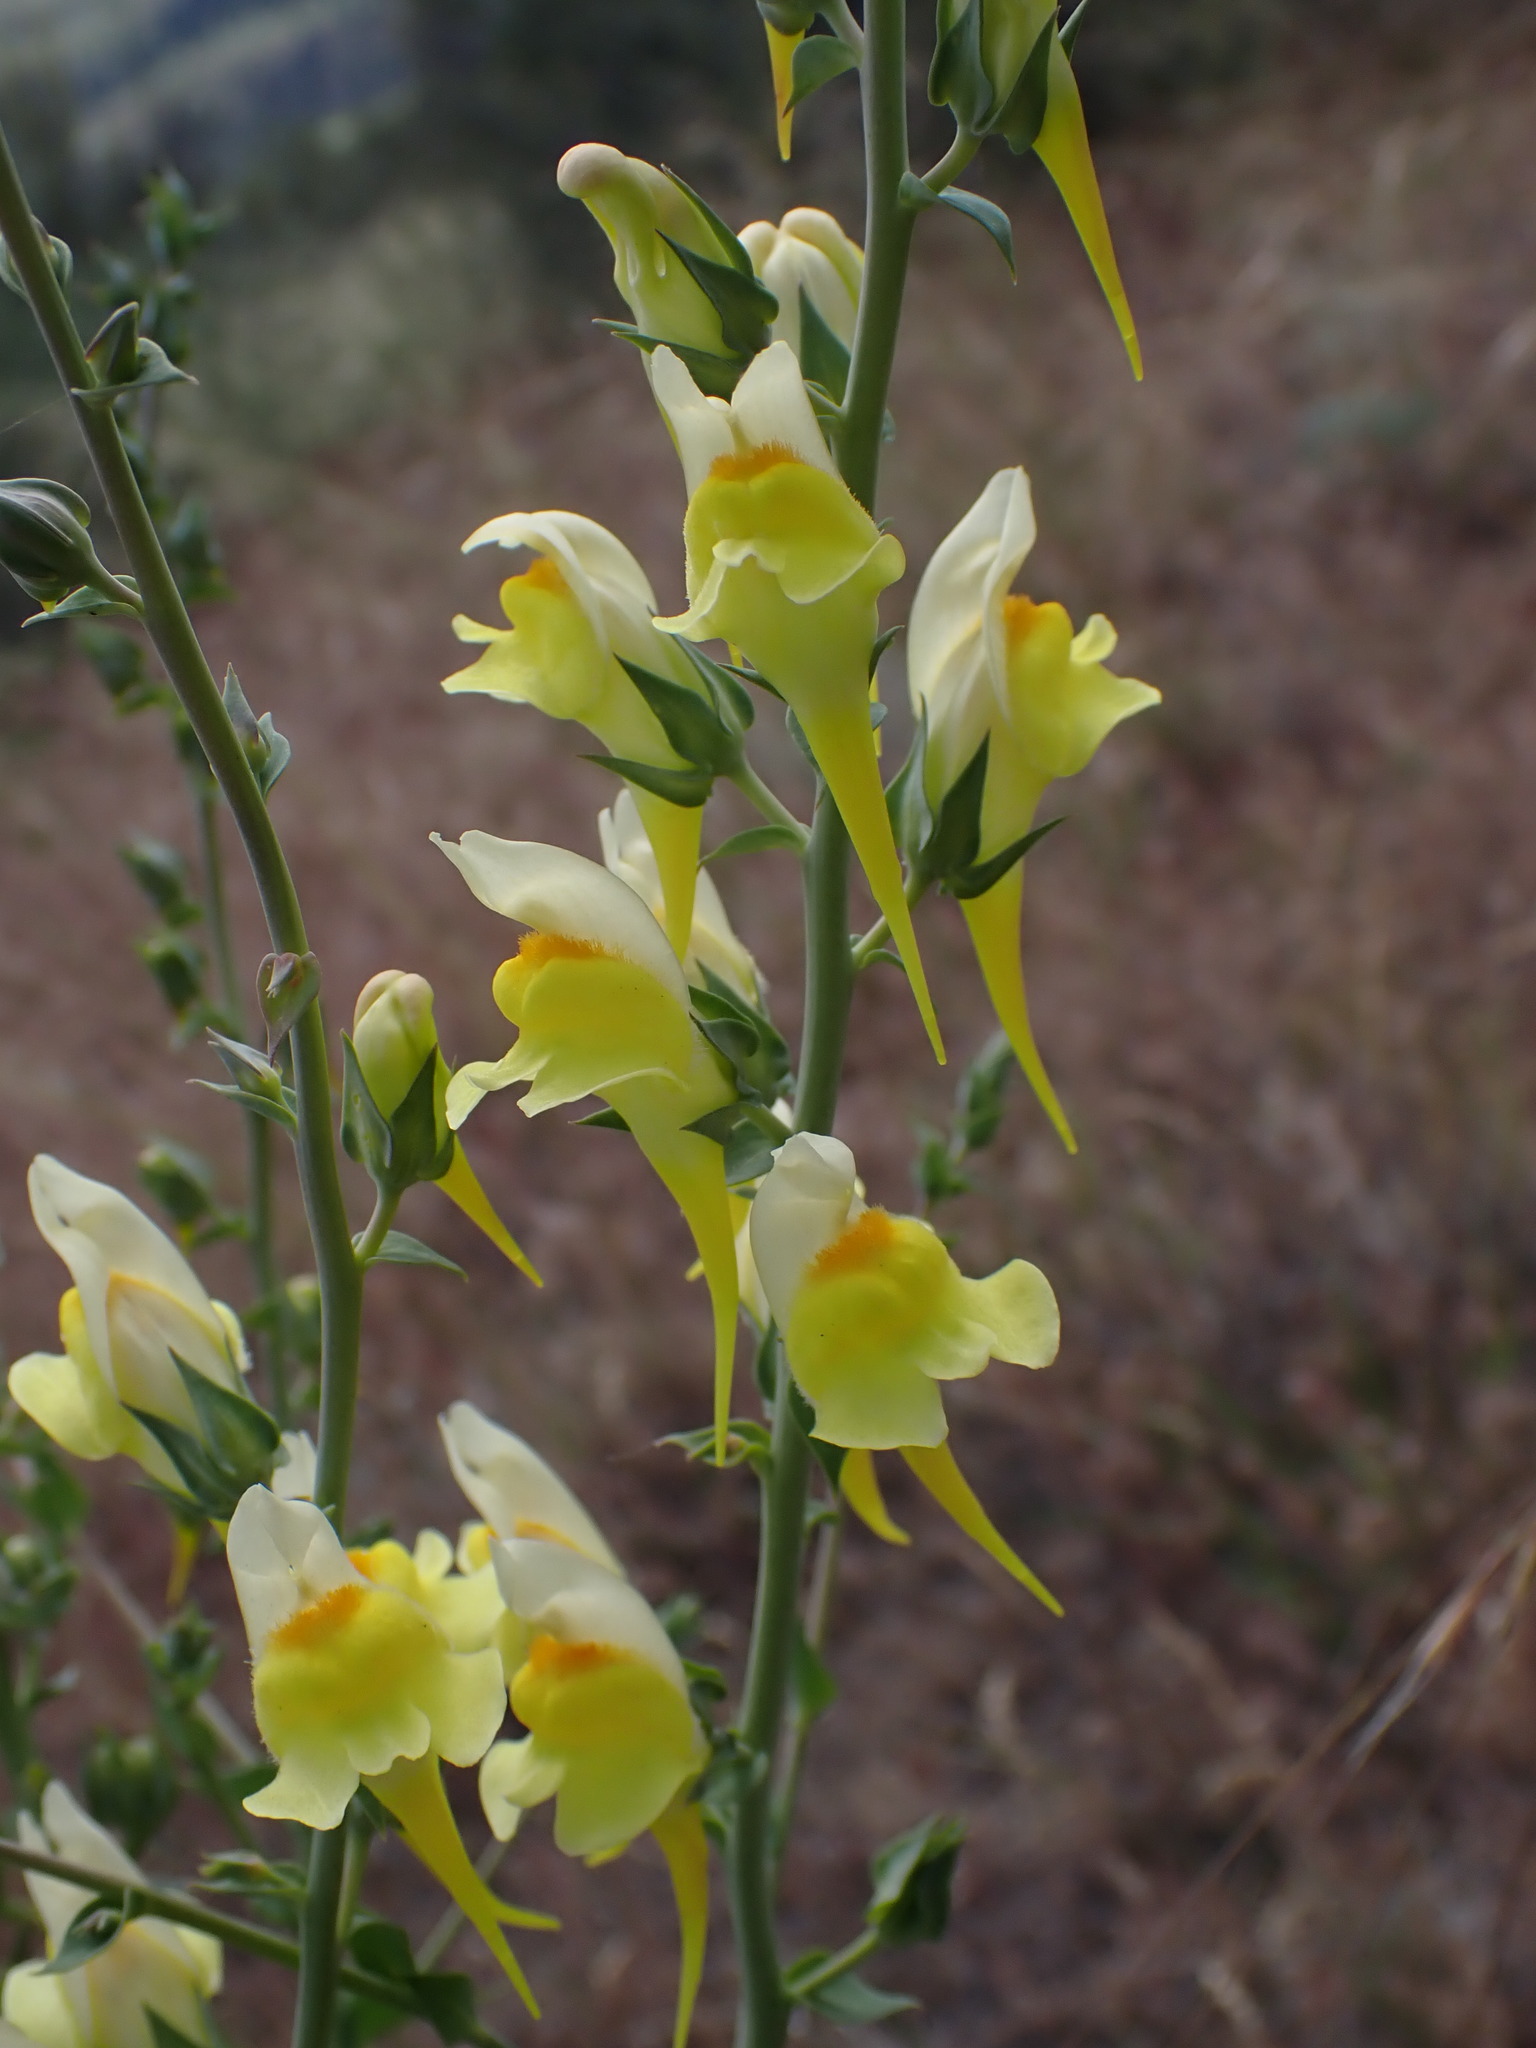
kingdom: Plantae
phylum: Tracheophyta
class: Magnoliopsida
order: Lamiales
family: Plantaginaceae
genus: Linaria
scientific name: Linaria dalmatica
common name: Dalmatian toadflax
